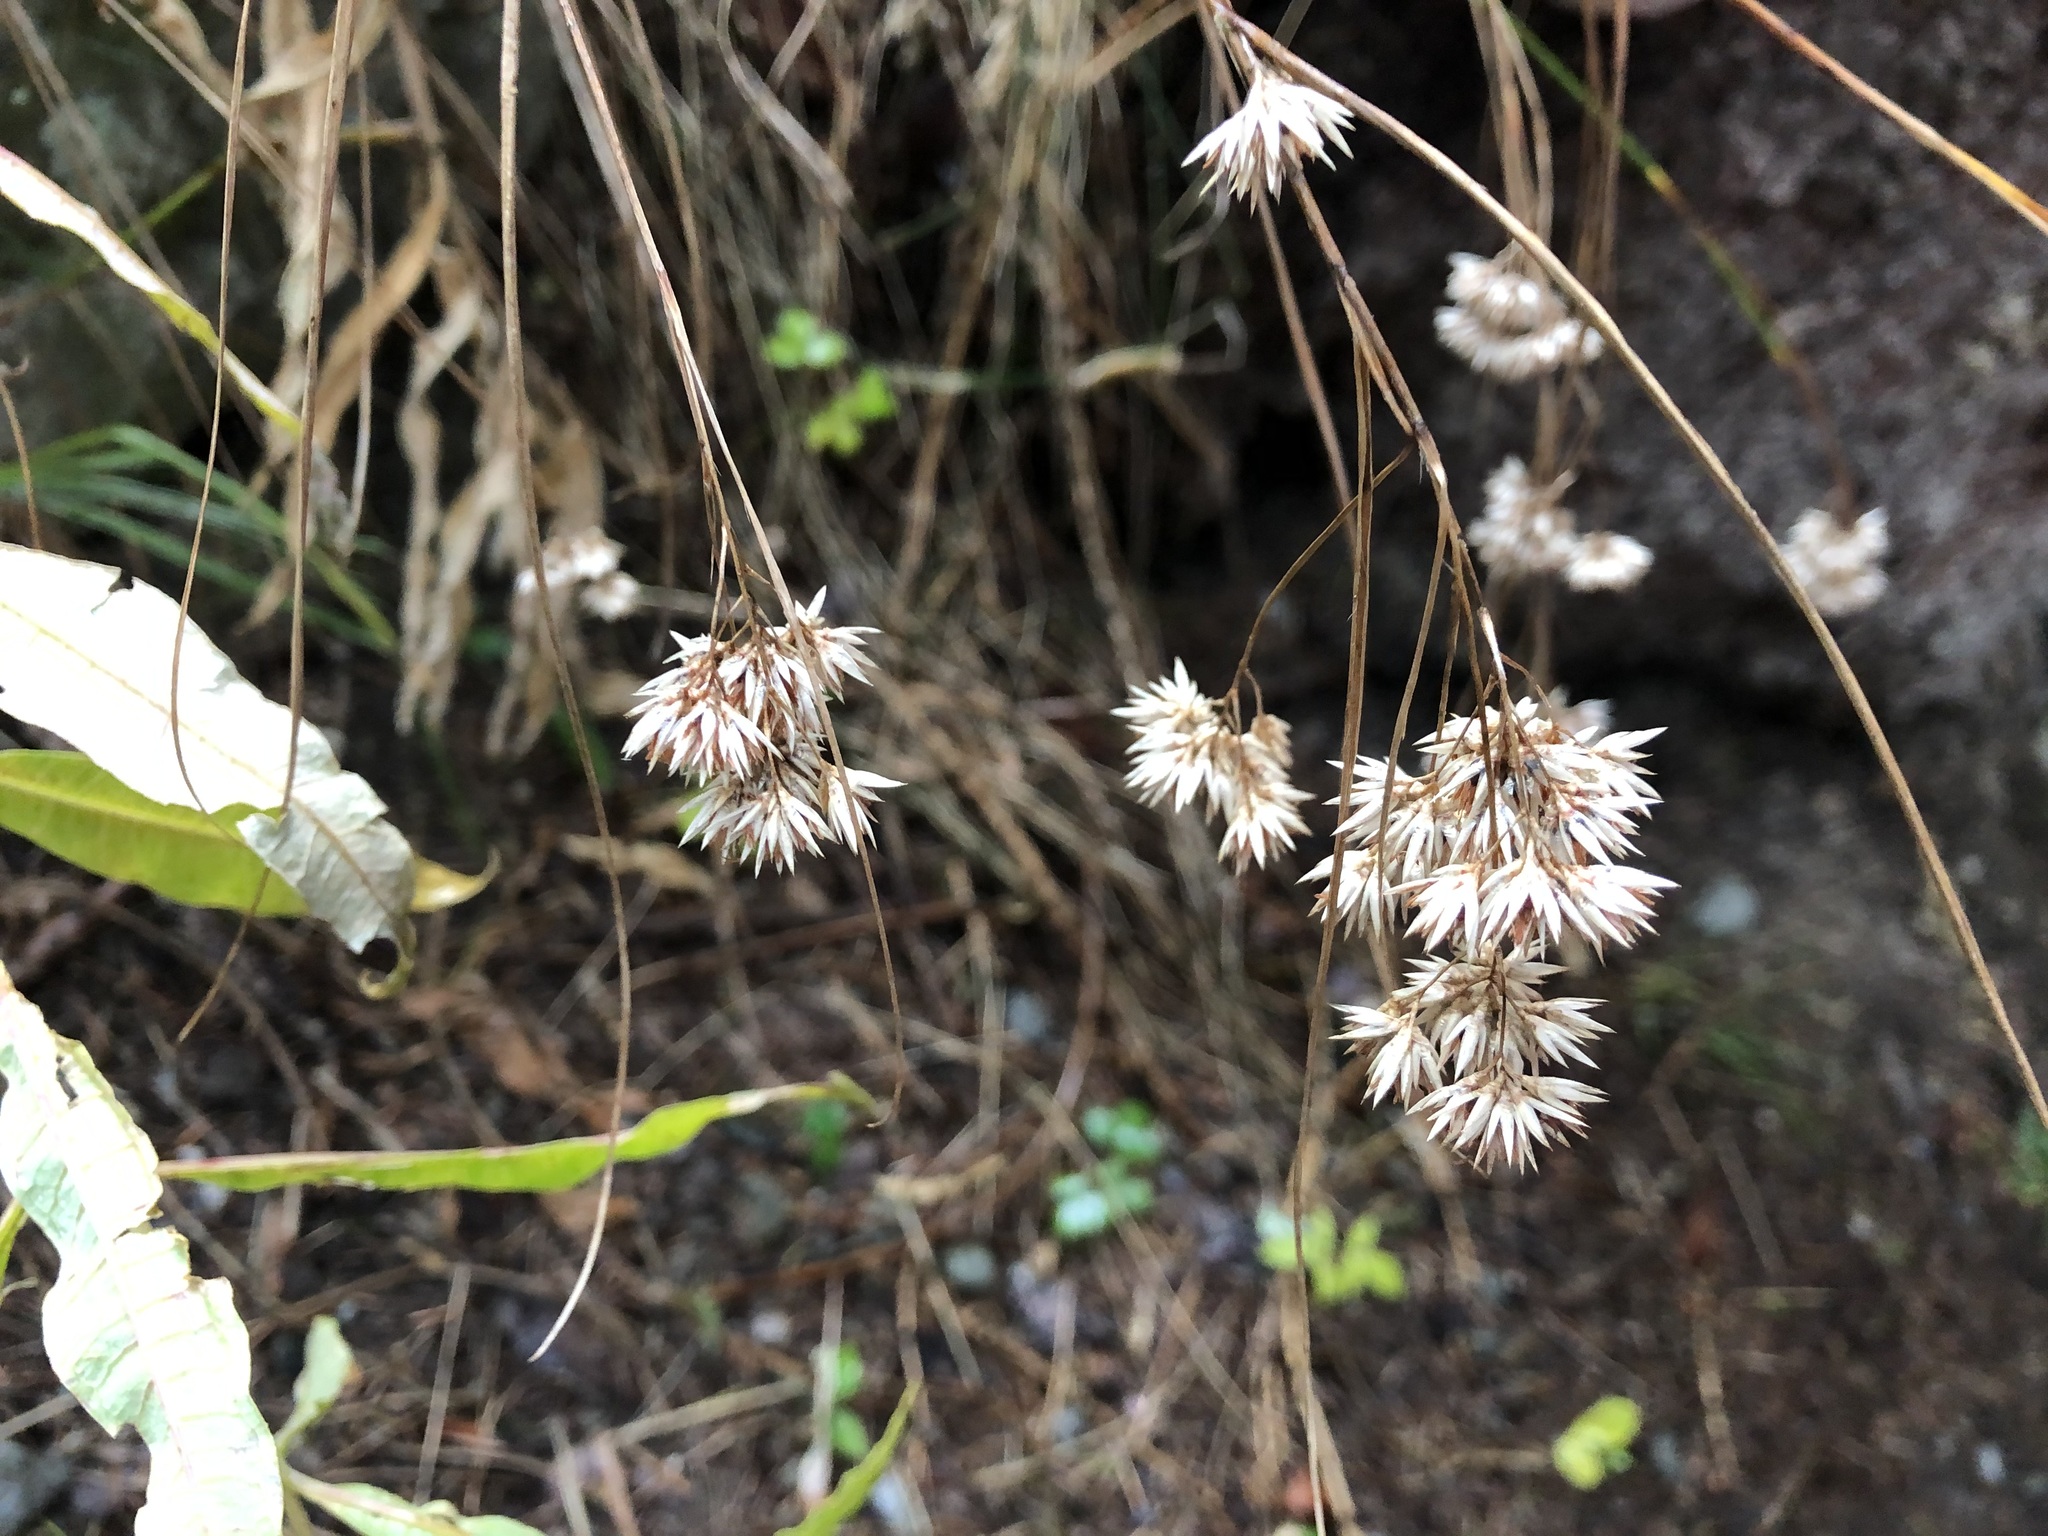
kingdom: Plantae
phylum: Tracheophyta
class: Liliopsida
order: Poales
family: Juncaceae
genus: Luzula
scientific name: Luzula nivea
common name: Snow-white wood-rush
